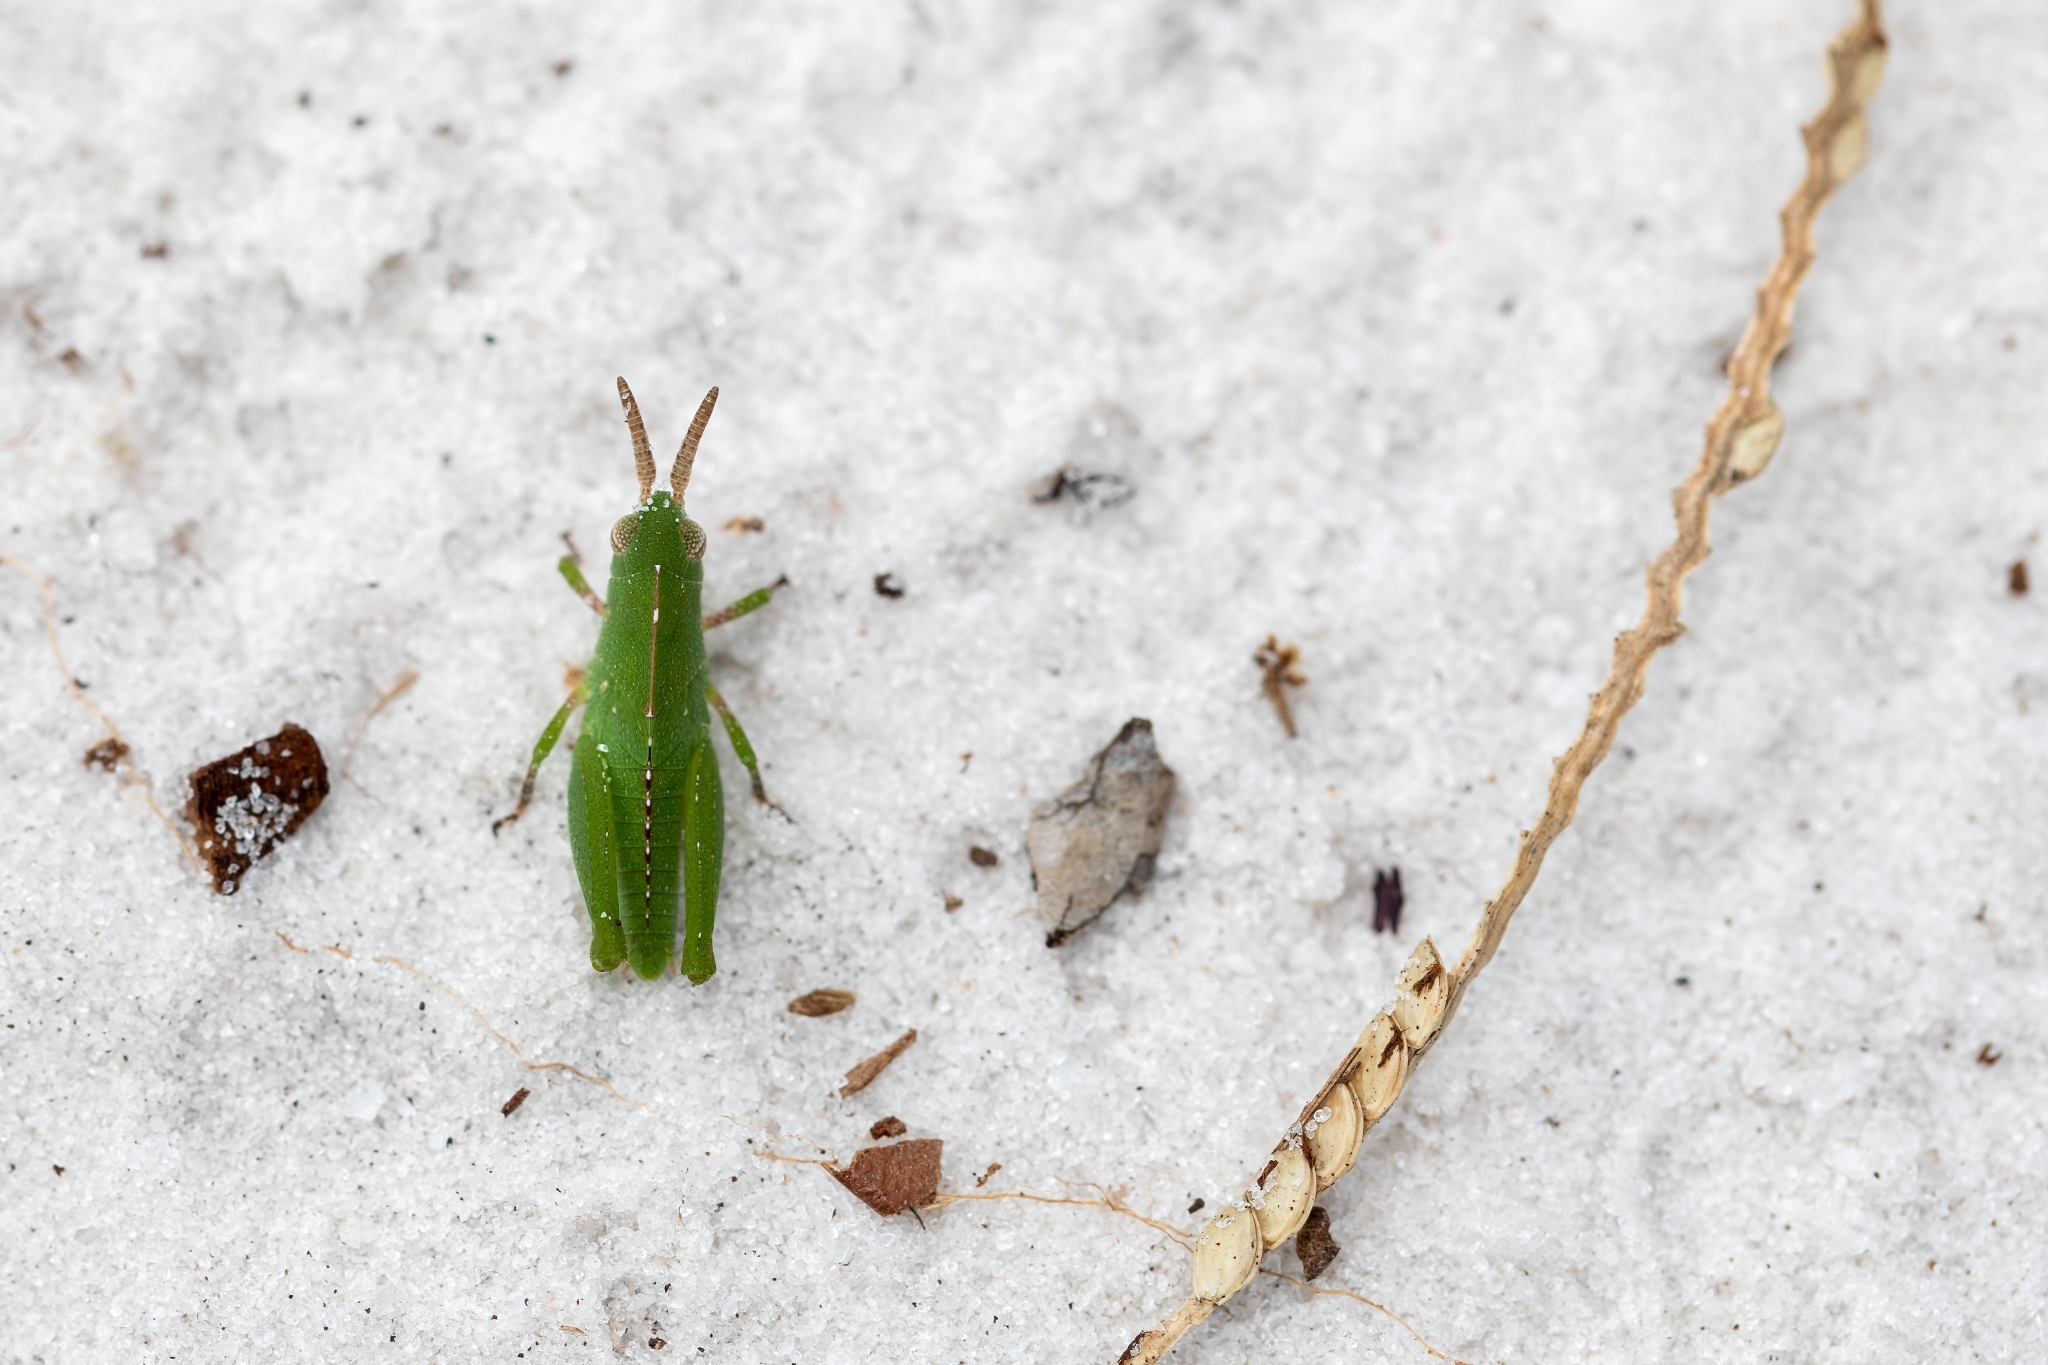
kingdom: Animalia
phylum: Arthropoda
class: Insecta
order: Orthoptera
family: Acrididae
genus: Chortophaga
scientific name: Chortophaga australior
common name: Southern green-striped grasshopper
